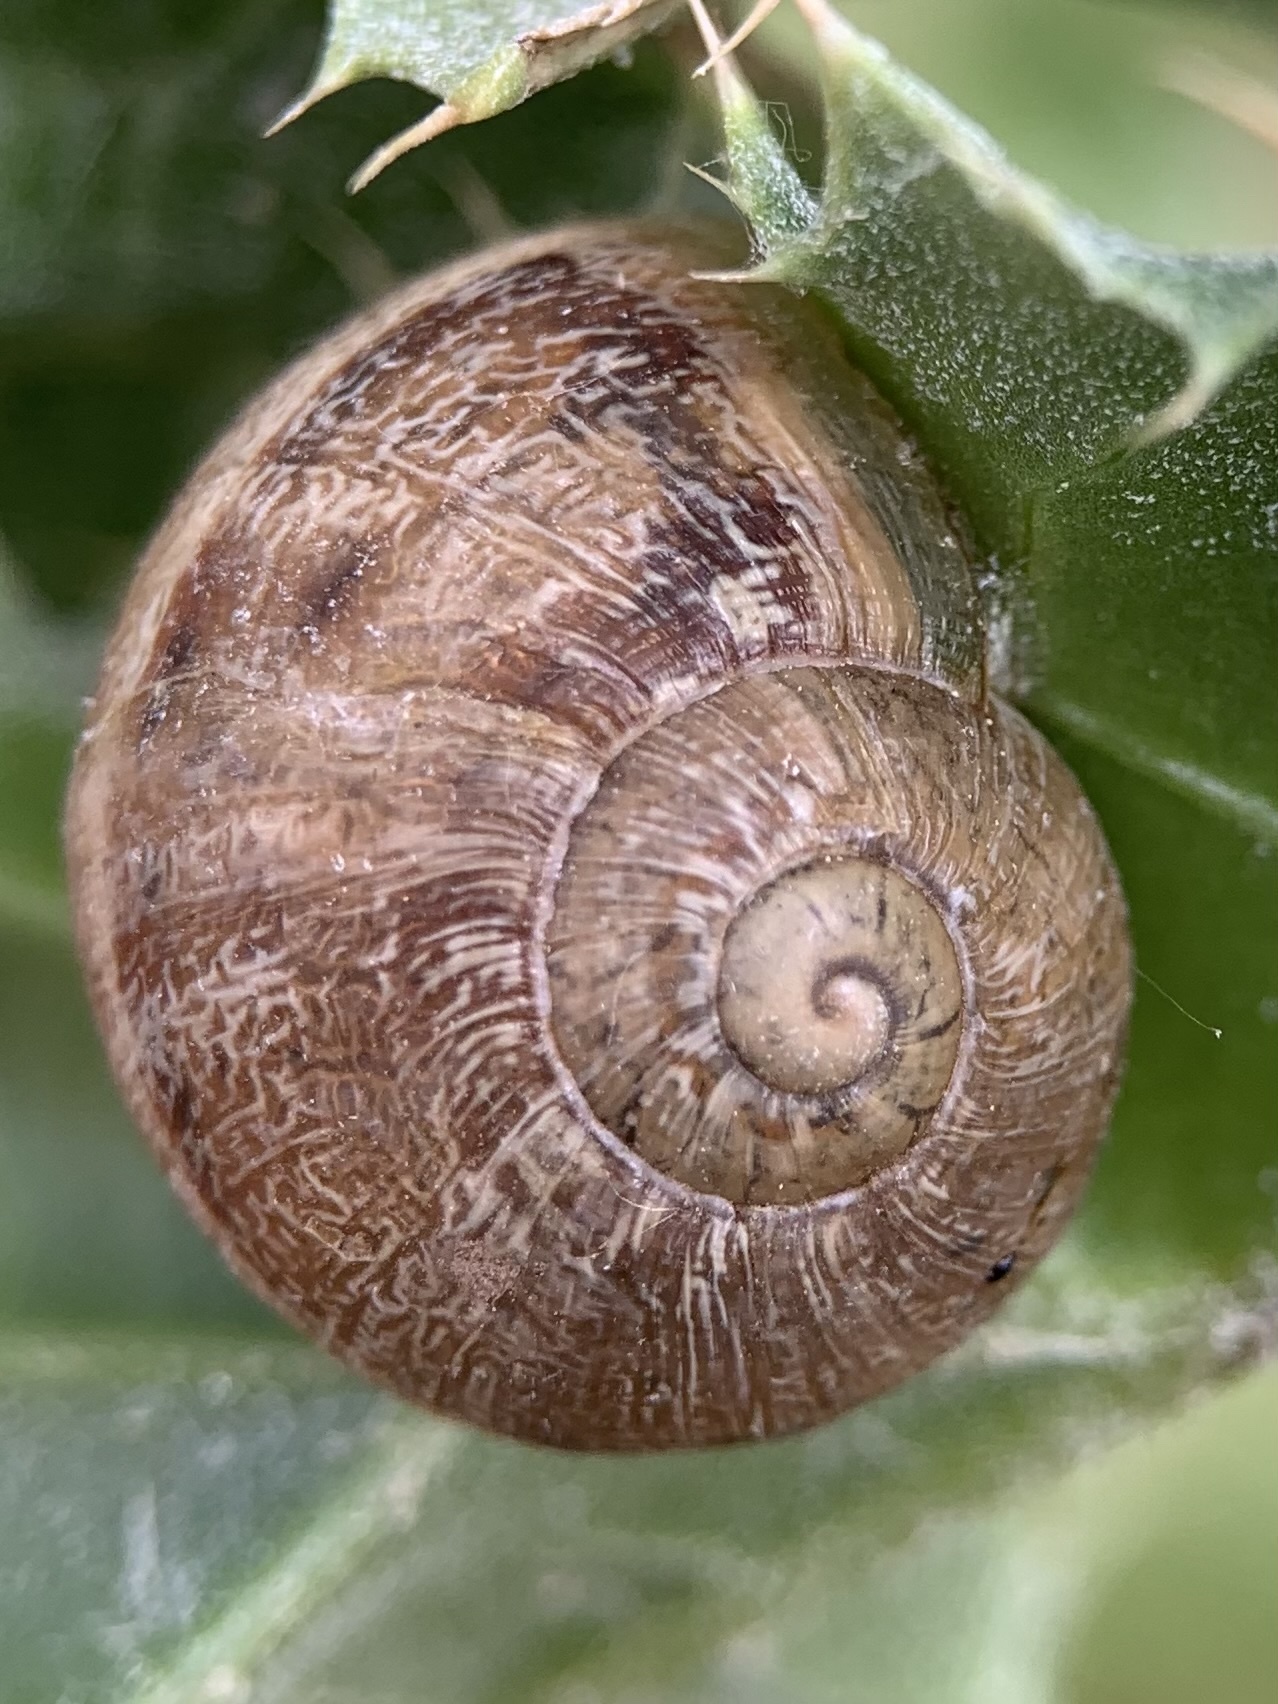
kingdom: Animalia
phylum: Mollusca
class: Gastropoda
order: Stylommatophora
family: Helicidae
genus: Cornu
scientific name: Cornu aspersum
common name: Brown garden snail
